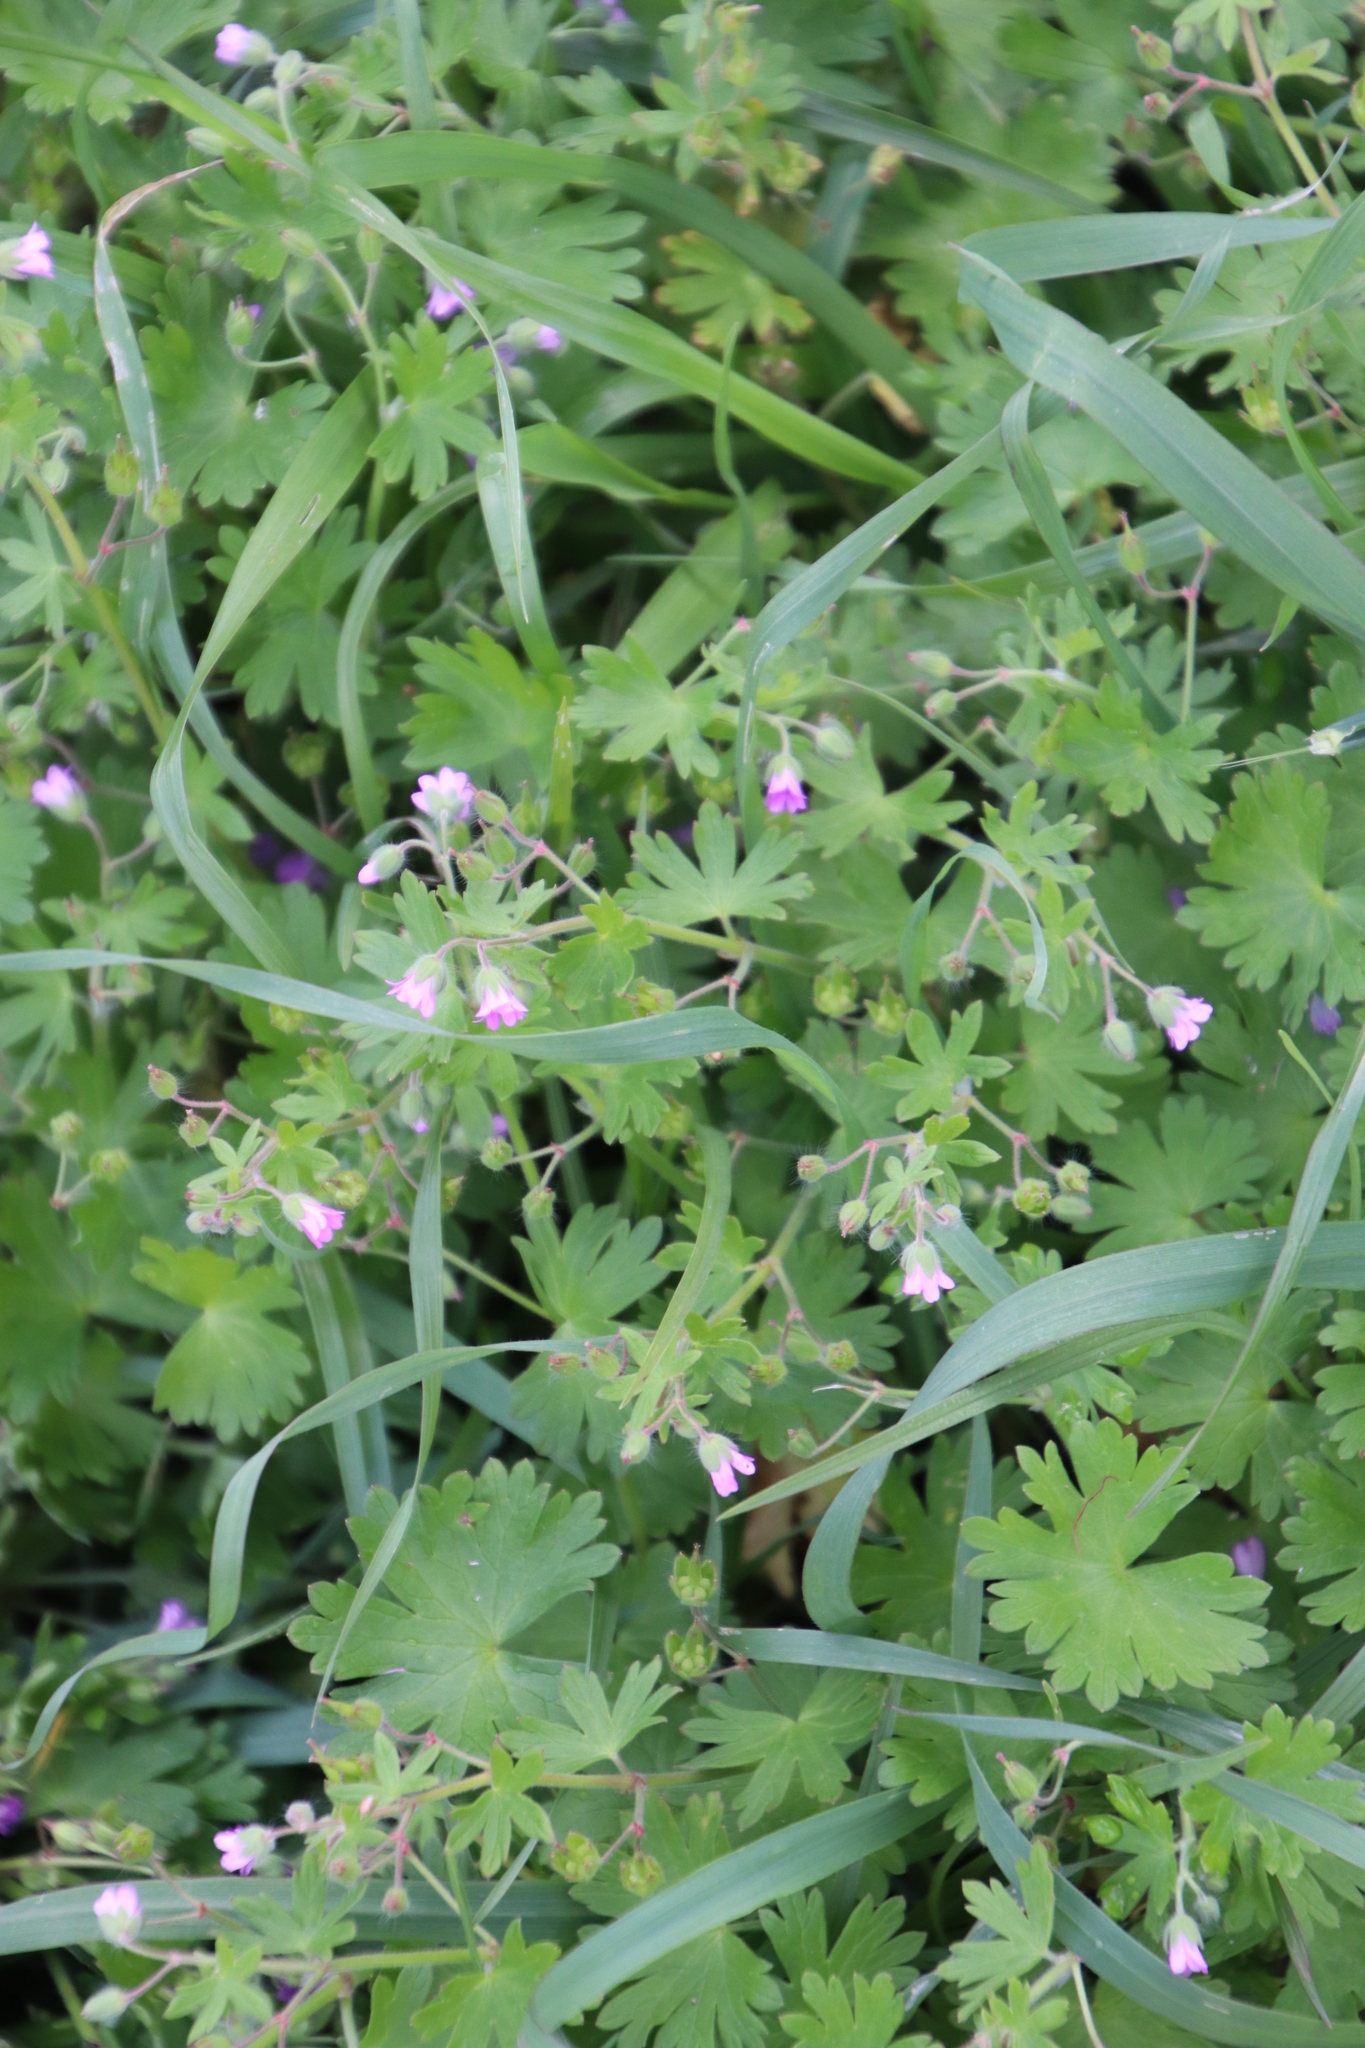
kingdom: Plantae
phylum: Tracheophyta
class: Magnoliopsida
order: Geraniales
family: Geraniaceae
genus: Geranium
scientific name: Geranium molle
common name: Dove's-foot crane's-bill
